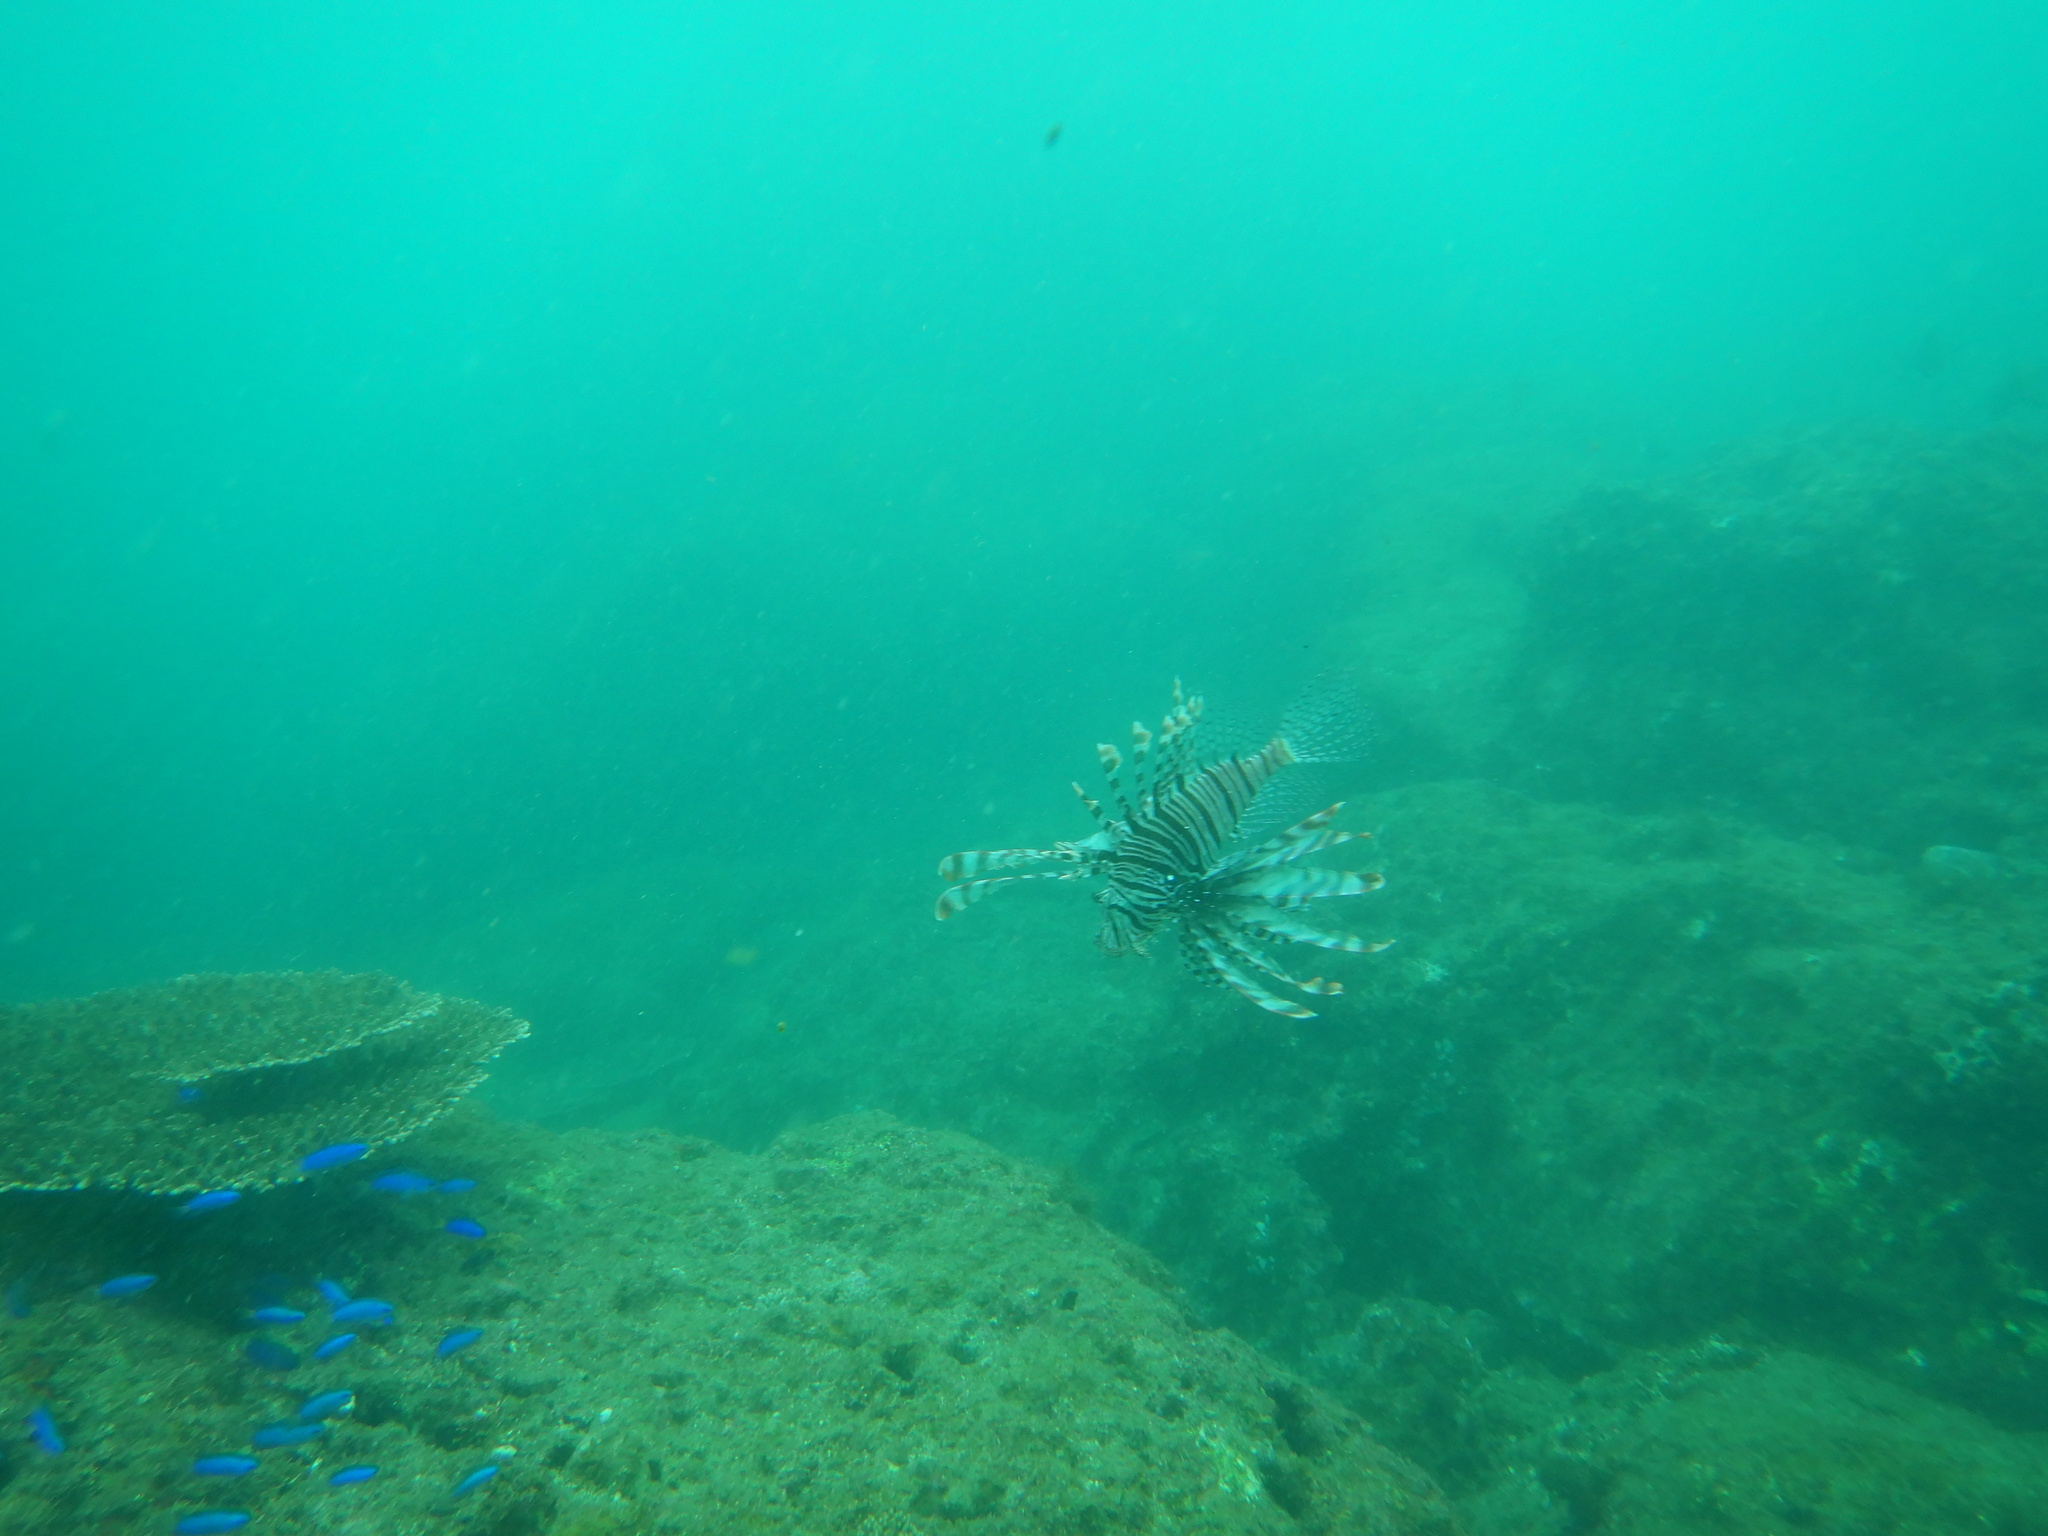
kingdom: Animalia
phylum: Chordata
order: Scorpaeniformes
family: Scorpaenidae
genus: Pterois
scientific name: Pterois volitans
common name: Lionfish
